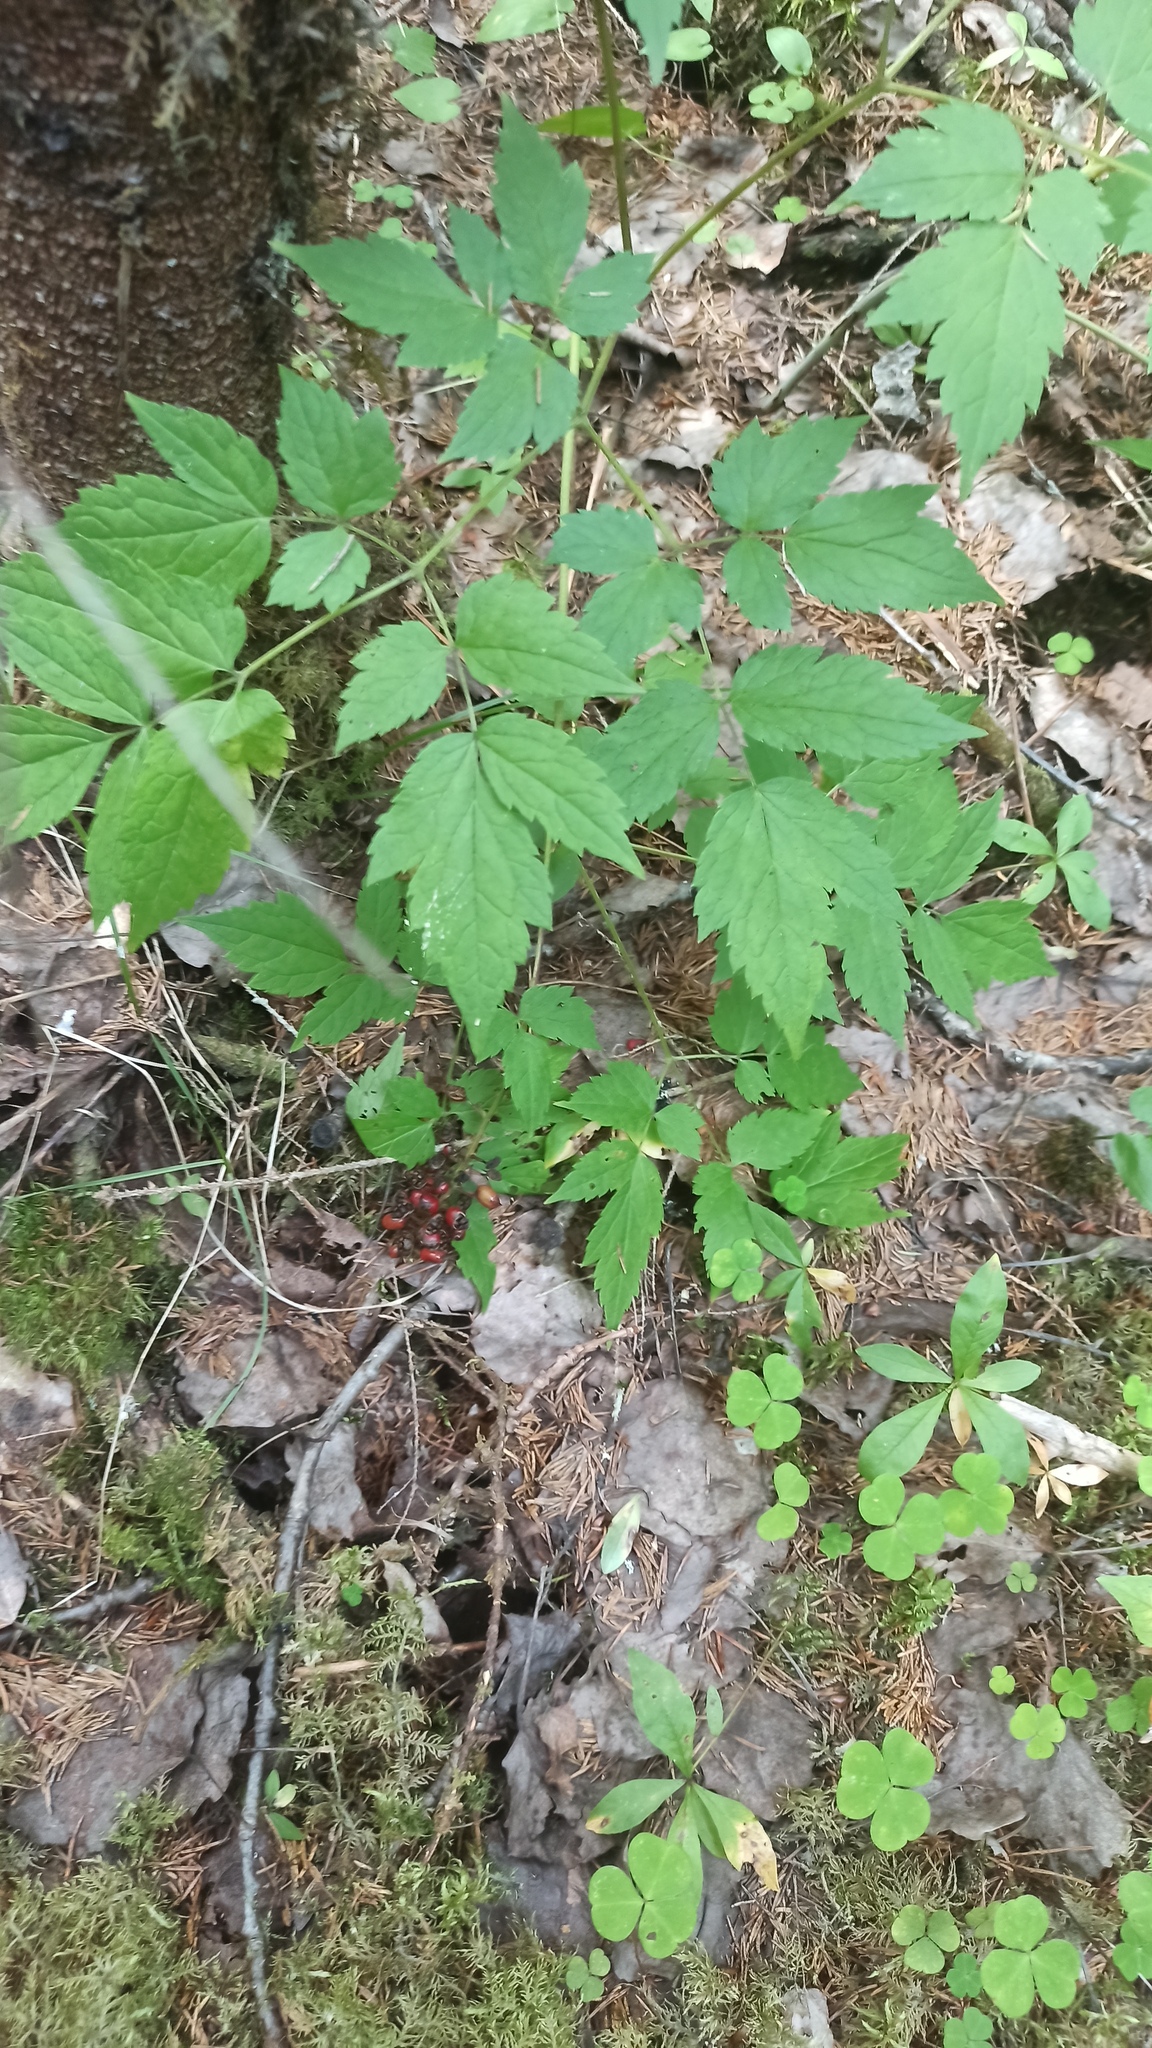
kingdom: Plantae
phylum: Tracheophyta
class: Magnoliopsida
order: Ranunculales
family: Ranunculaceae
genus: Actaea
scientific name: Actaea erythrocarpa
